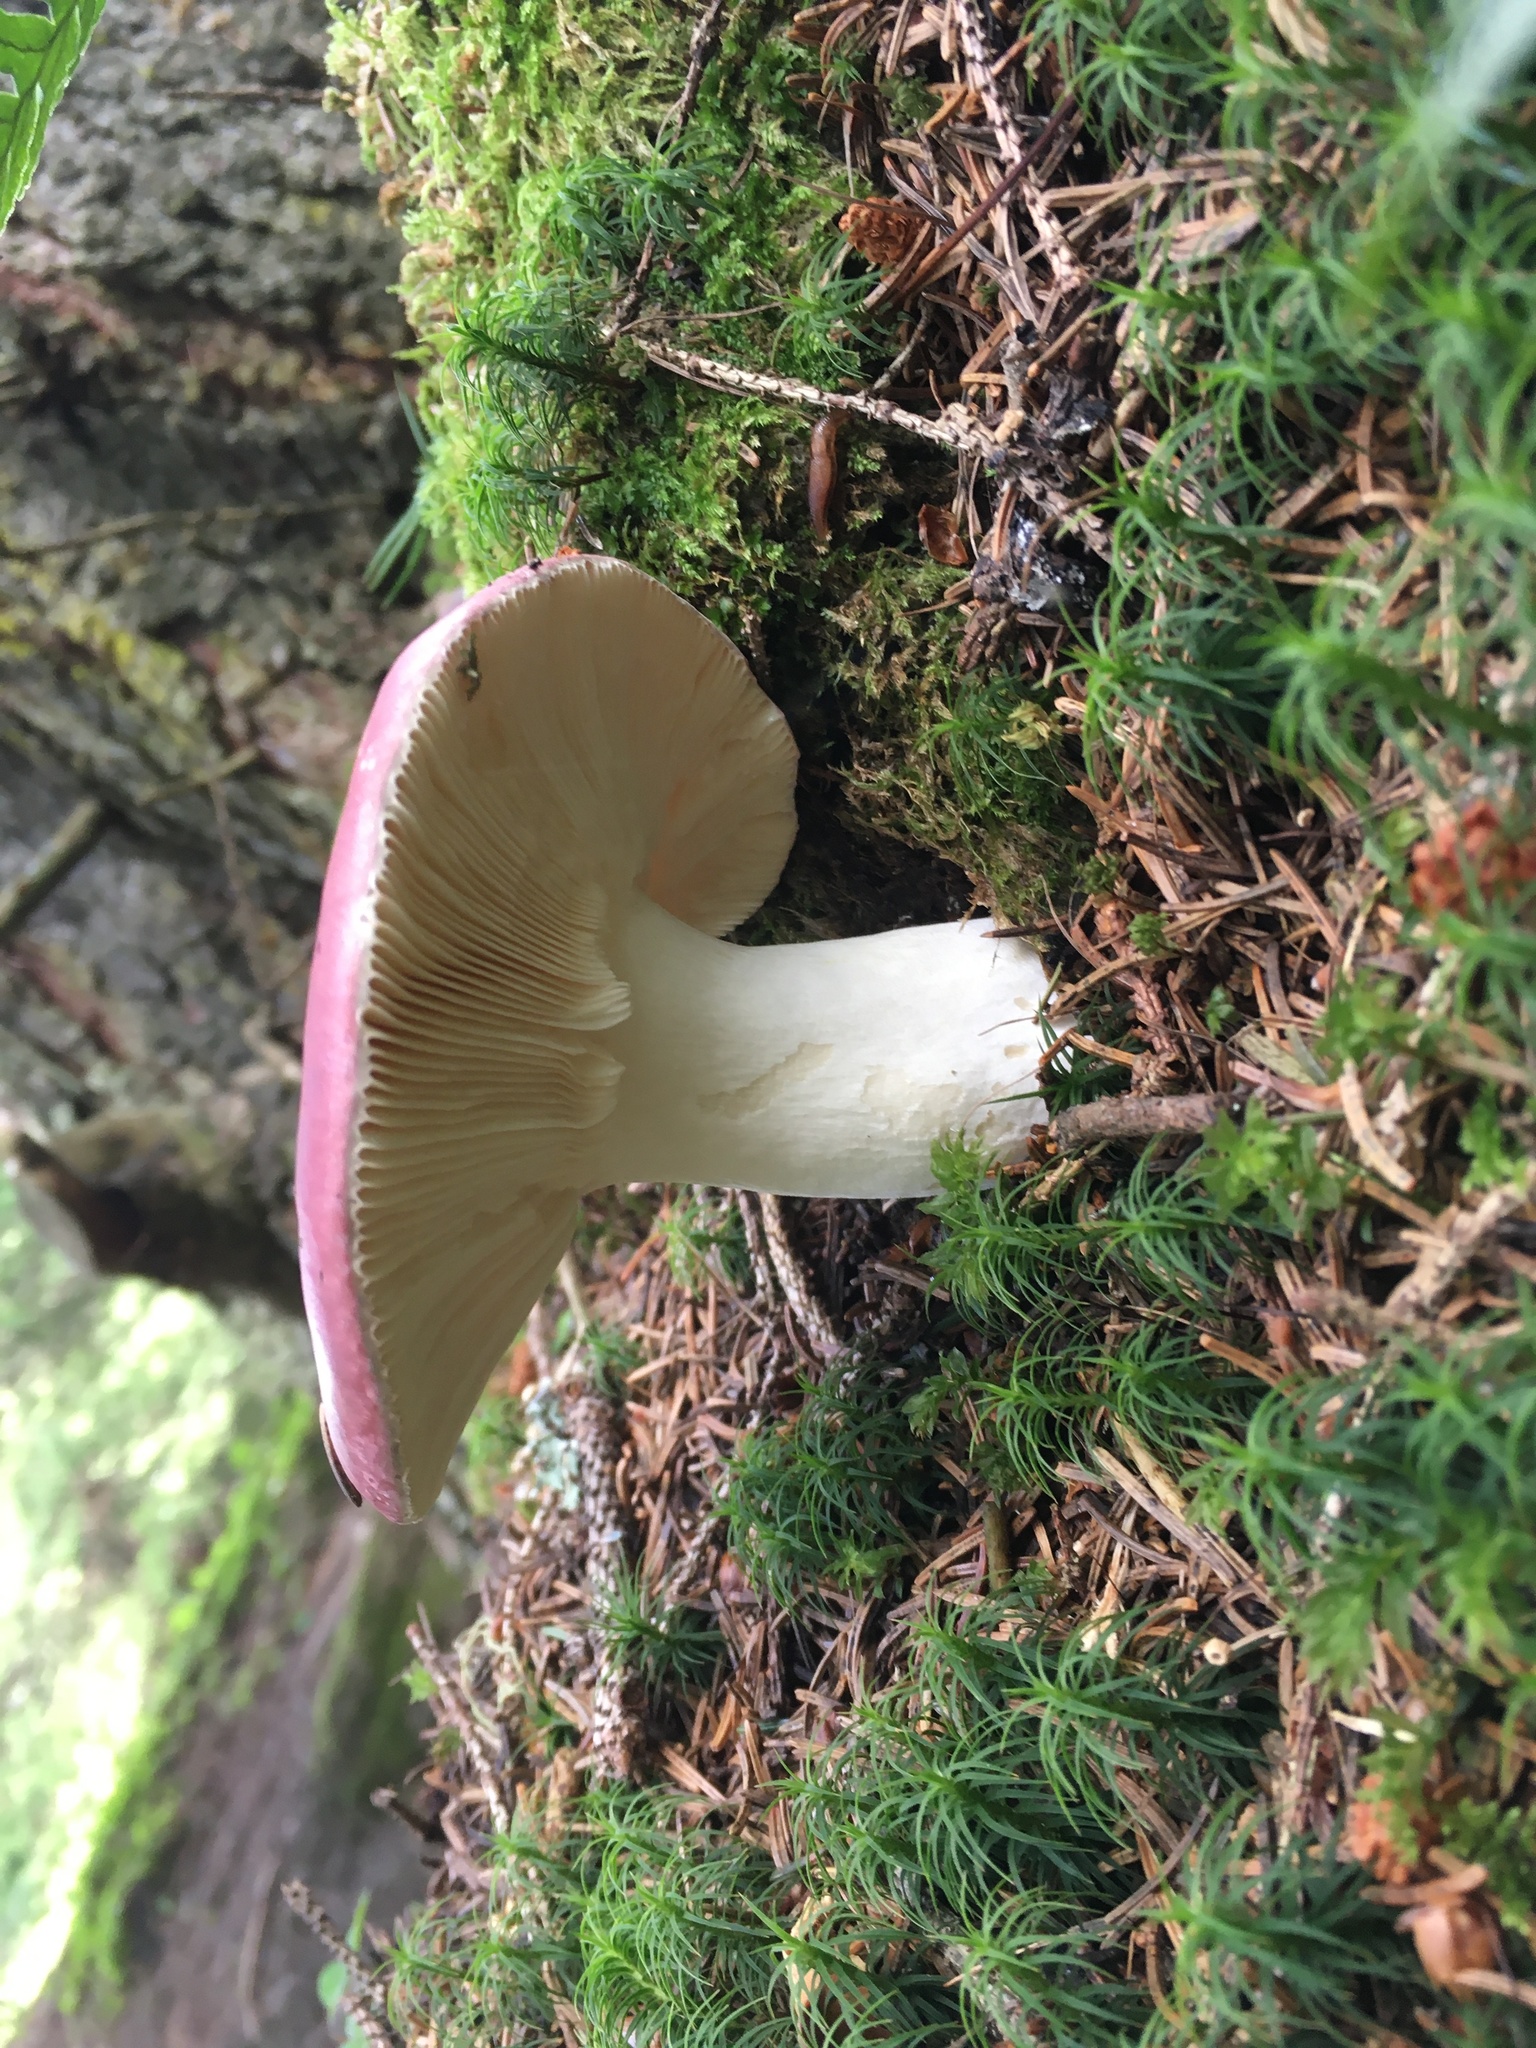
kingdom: Fungi
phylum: Basidiomycota
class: Agaricomycetes
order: Russulales
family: Russulaceae
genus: Russula
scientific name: Russula sanguinea
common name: Bloody brittlegill
